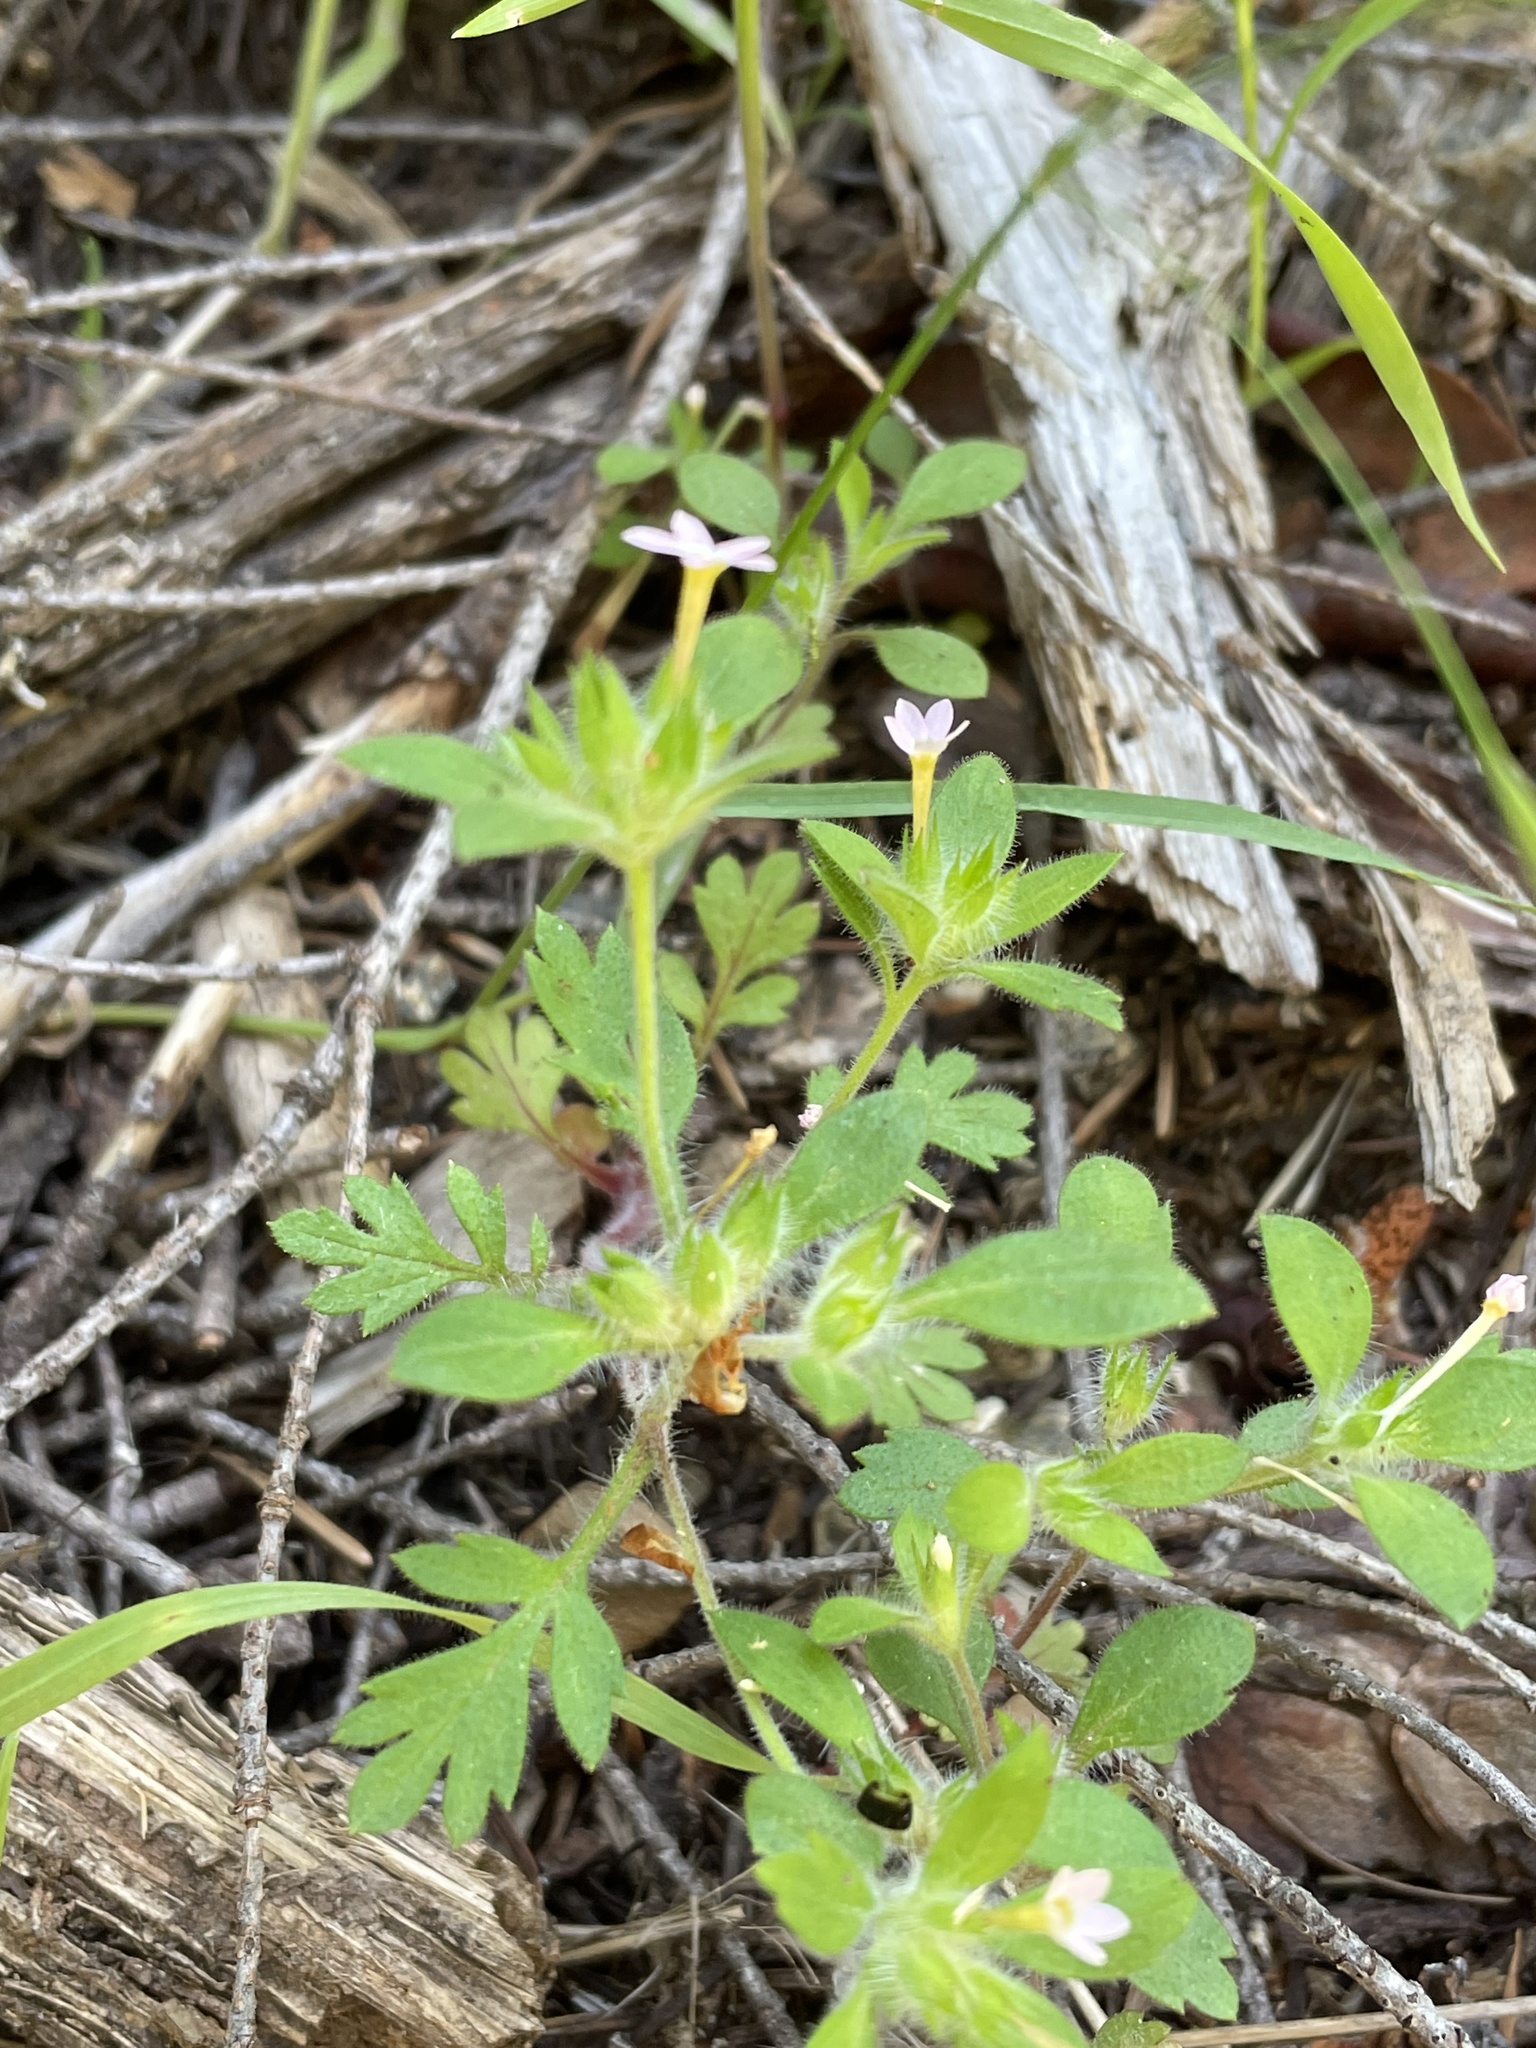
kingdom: Plantae
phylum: Tracheophyta
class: Magnoliopsida
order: Ericales
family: Polemoniaceae
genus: Collomia
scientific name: Collomia heterophylla
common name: Variable-leaved collomia
